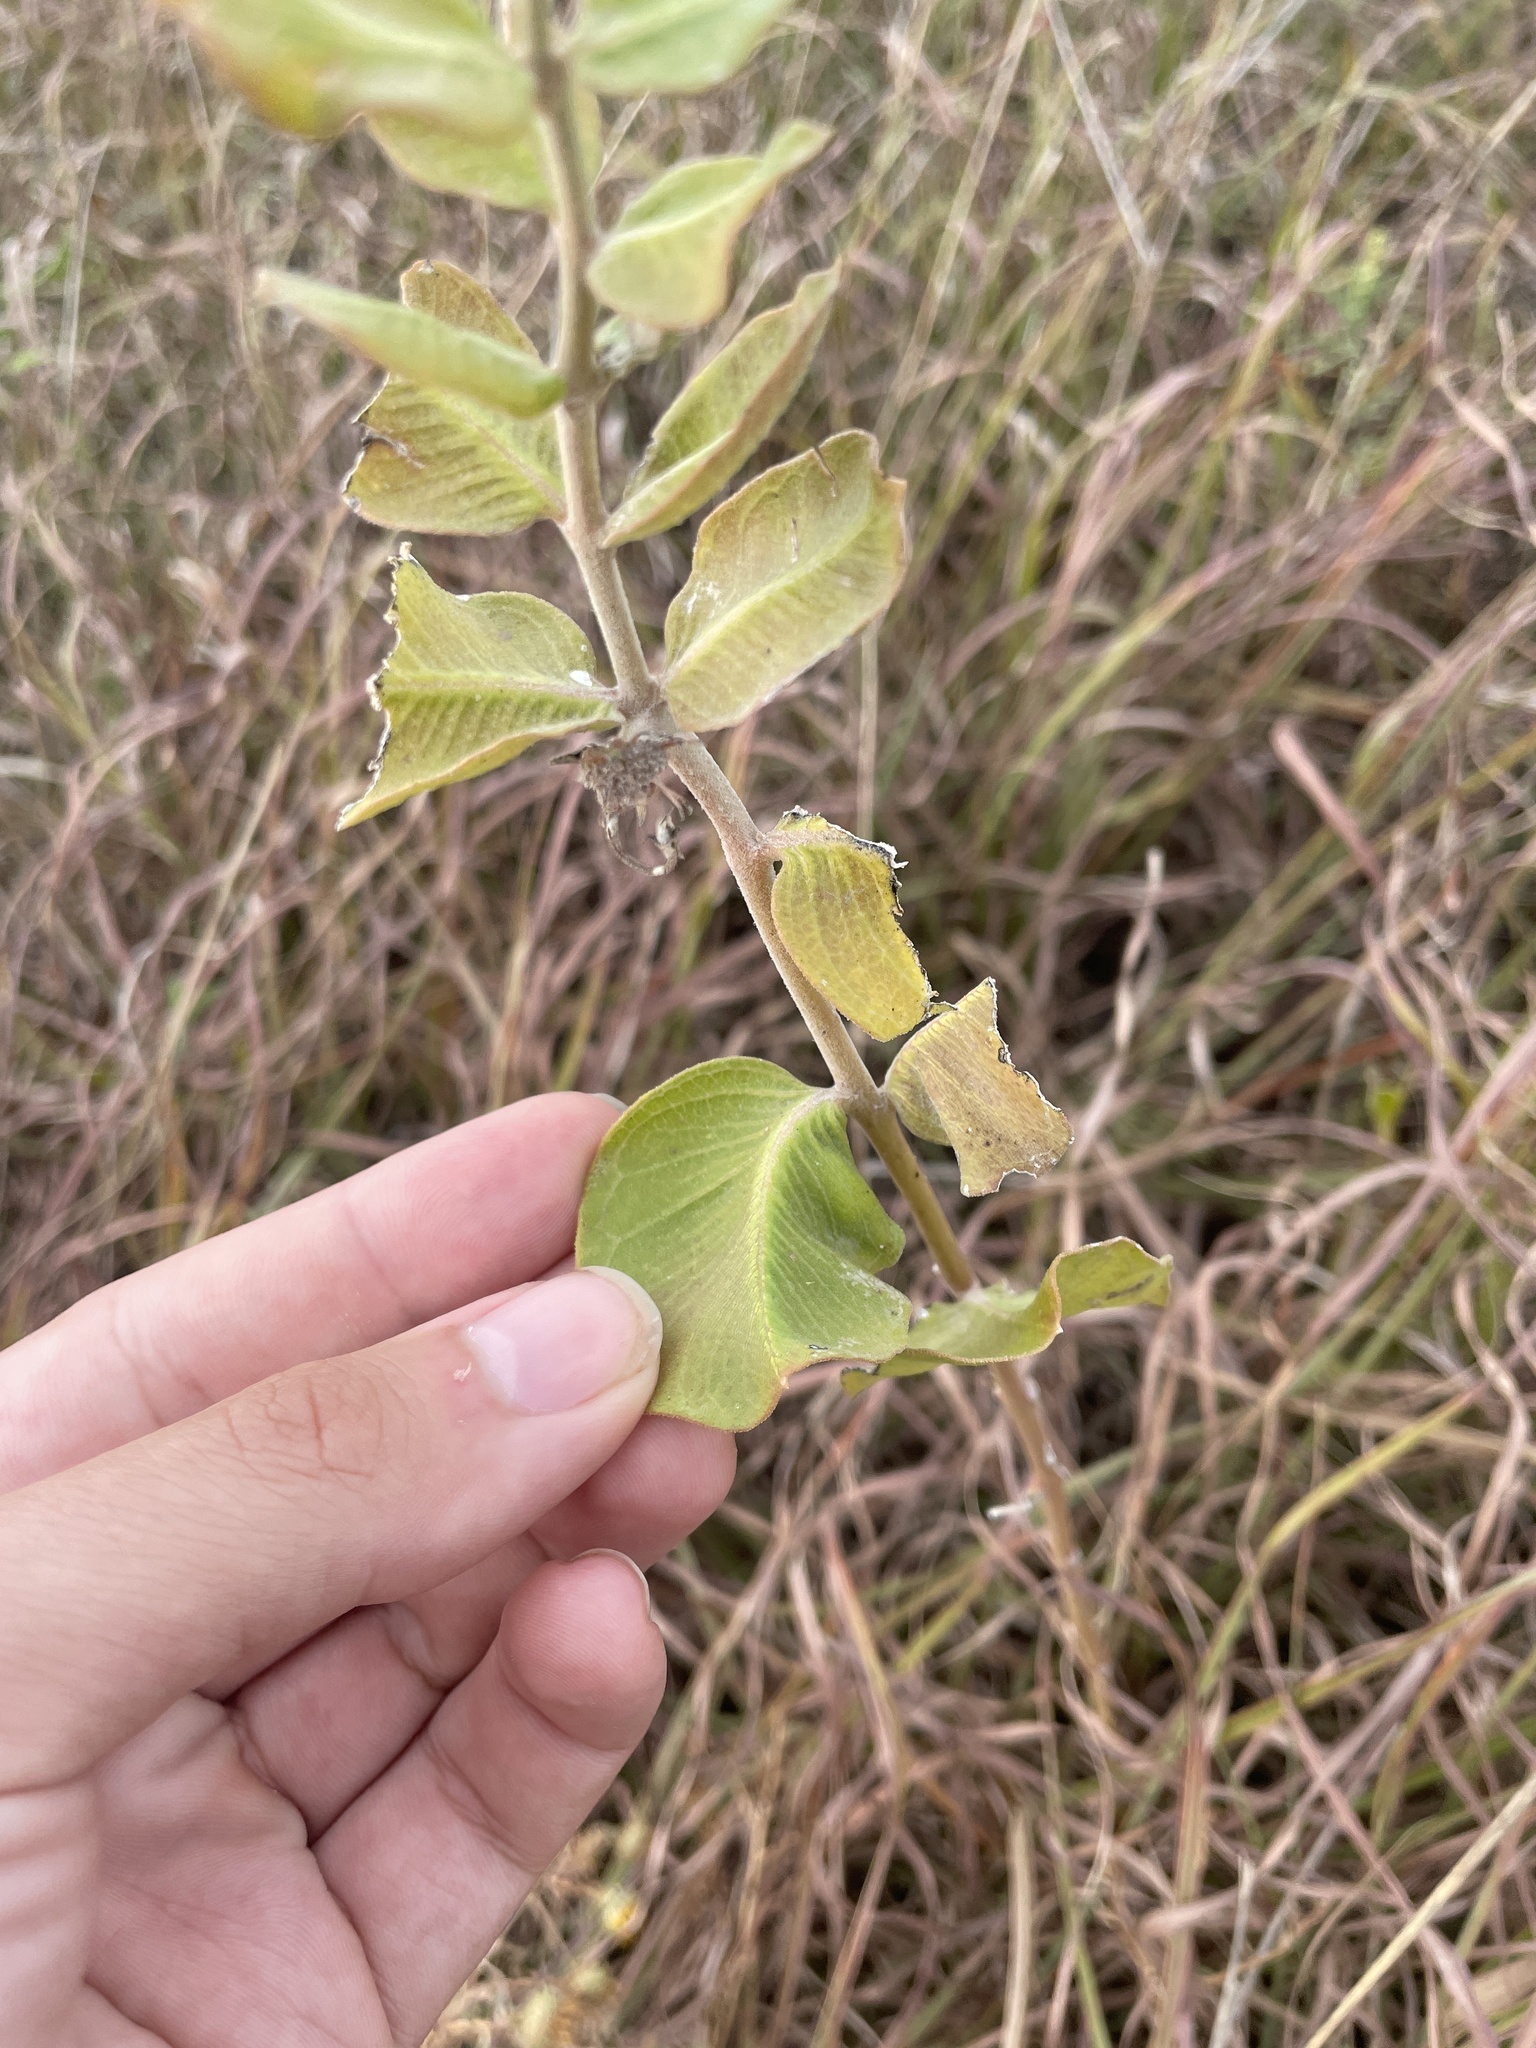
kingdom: Plantae
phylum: Tracheophyta
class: Magnoliopsida
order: Gentianales
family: Apocynaceae
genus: Asclepias
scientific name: Asclepias viridiflora
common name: Green comet milkweed
